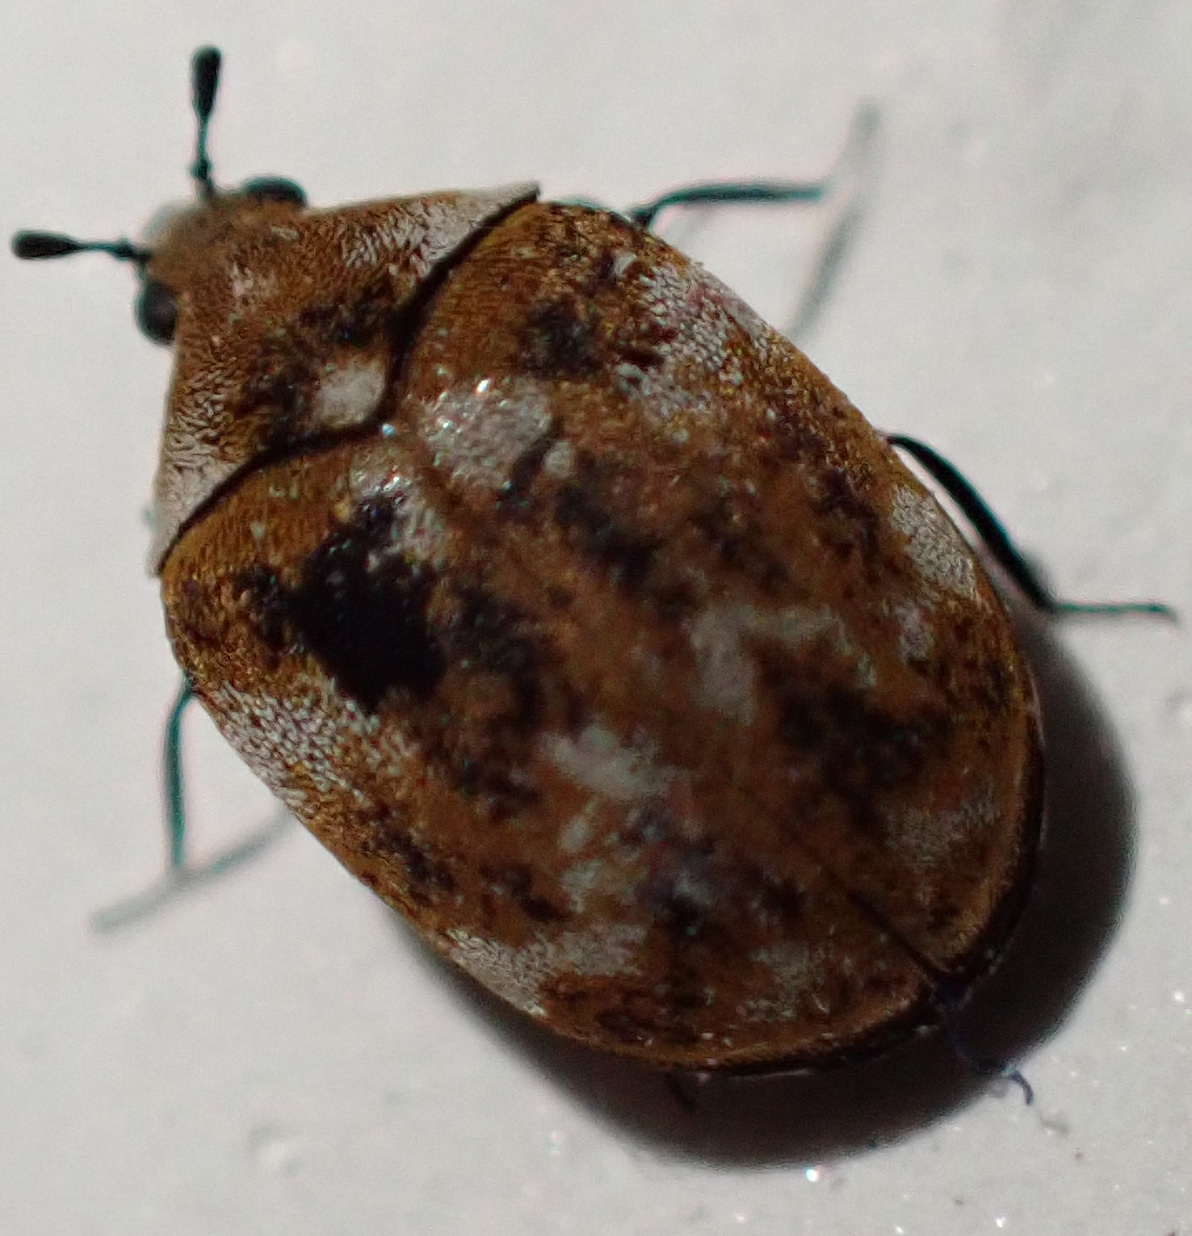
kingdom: Animalia
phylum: Arthropoda
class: Insecta
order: Coleoptera
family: Dermestidae
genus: Anthrenus
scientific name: Anthrenus verbasci
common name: Varied carpet beetle
